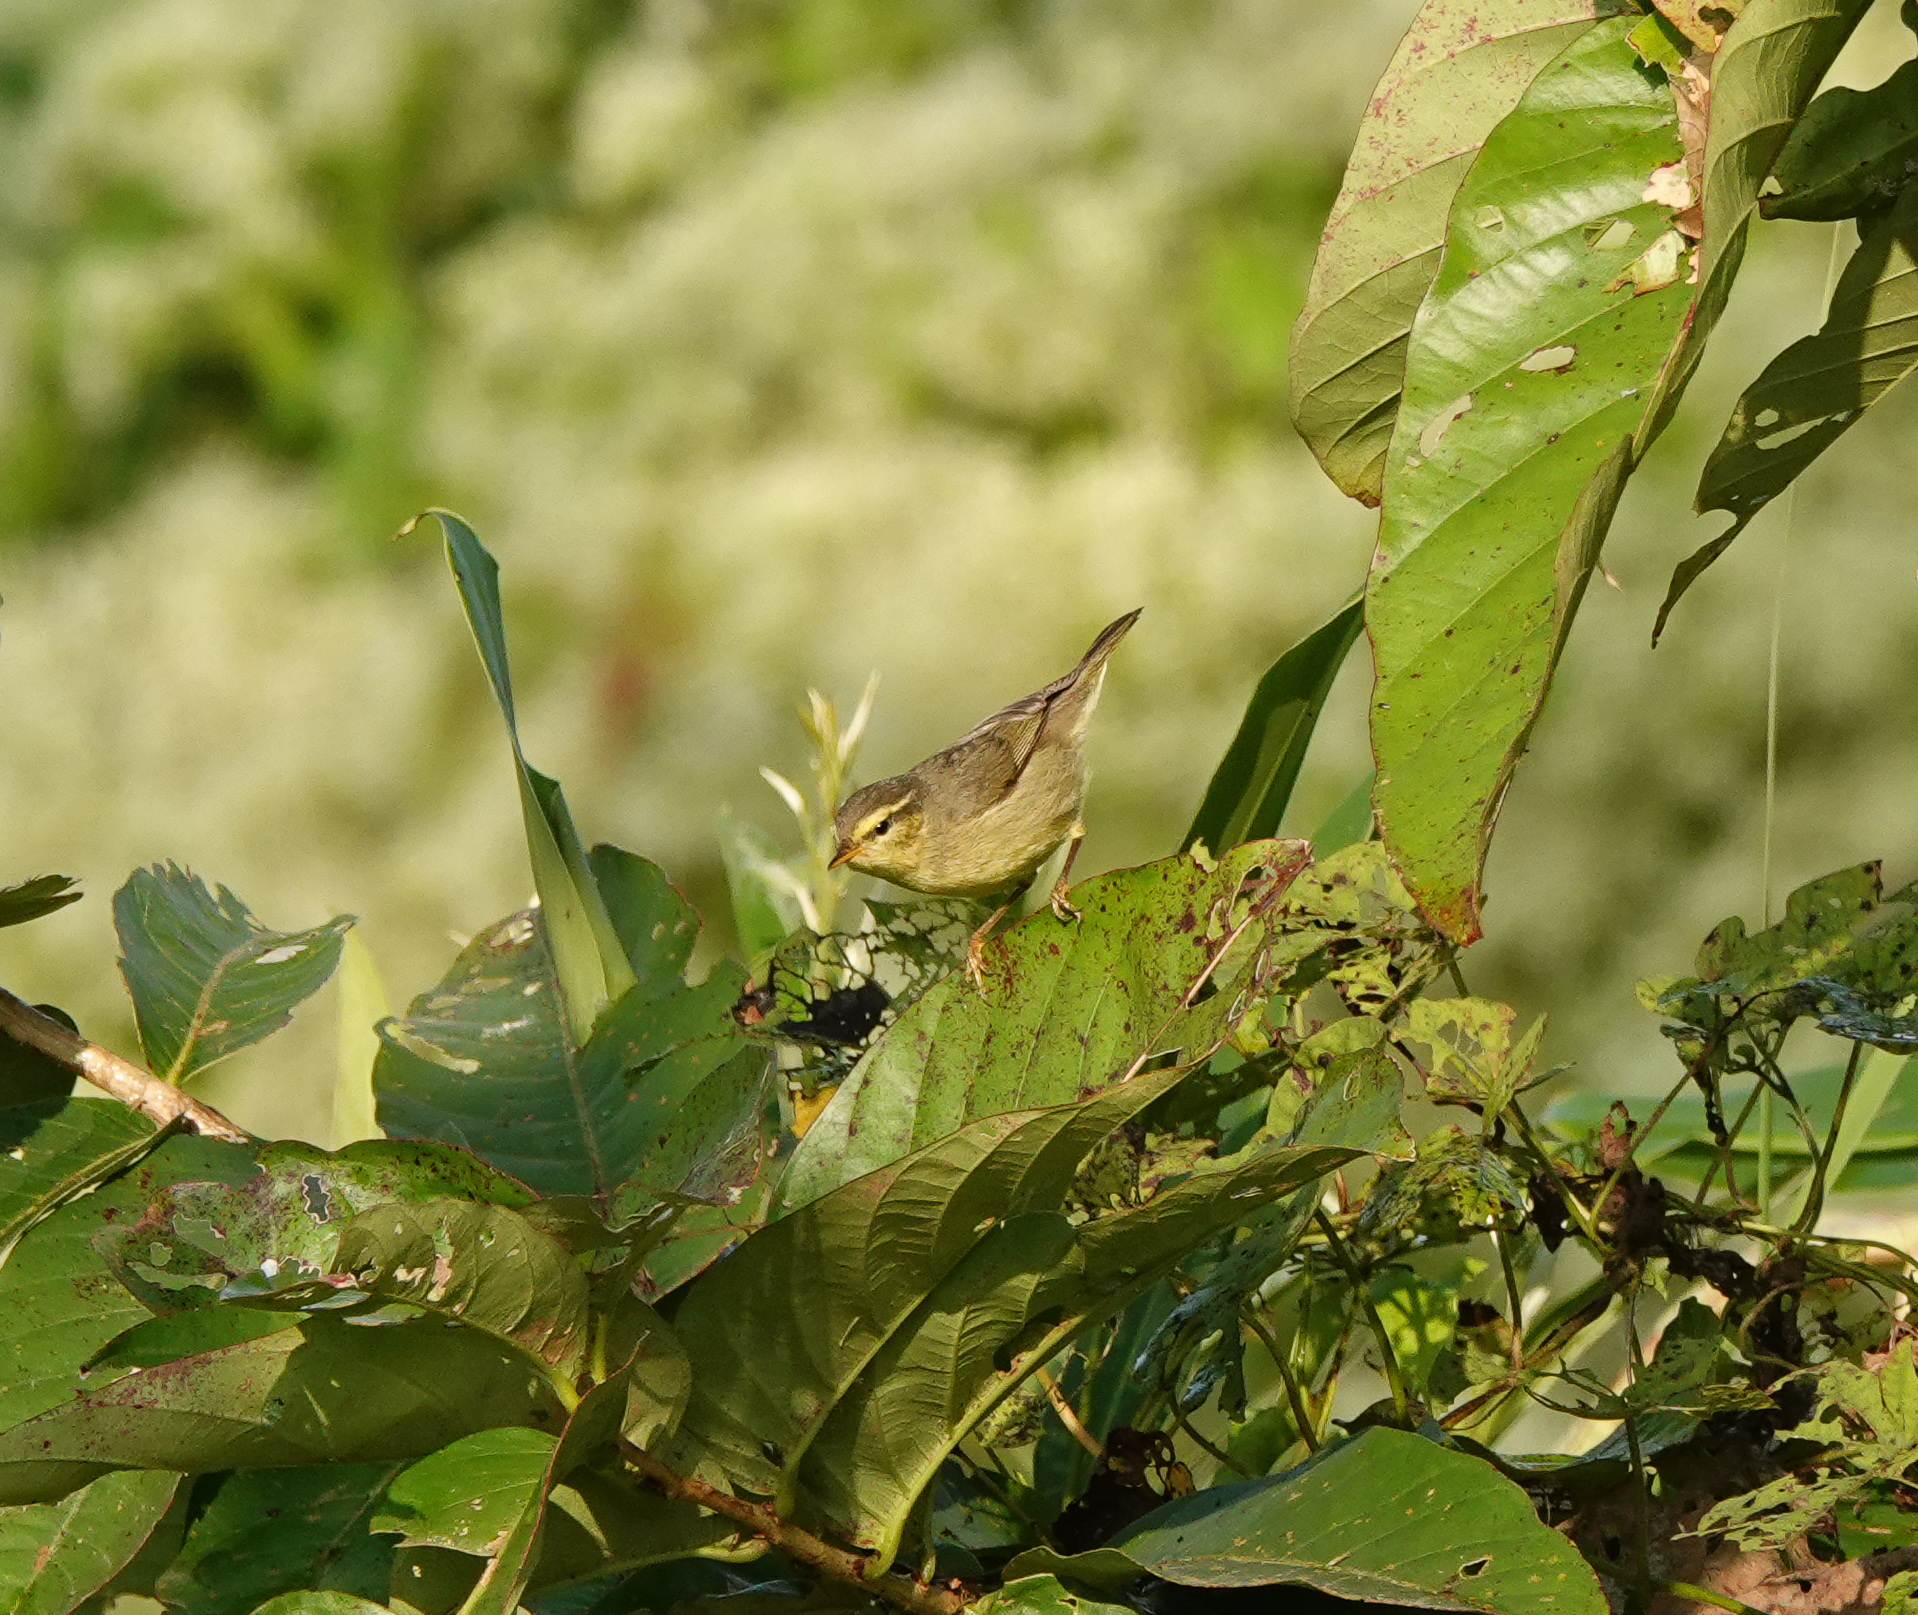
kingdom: Animalia
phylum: Chordata
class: Aves
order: Passeriformes
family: Phylloscopidae
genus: Phylloscopus
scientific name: Phylloscopus affinis
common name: Tickell's leaf warbler
